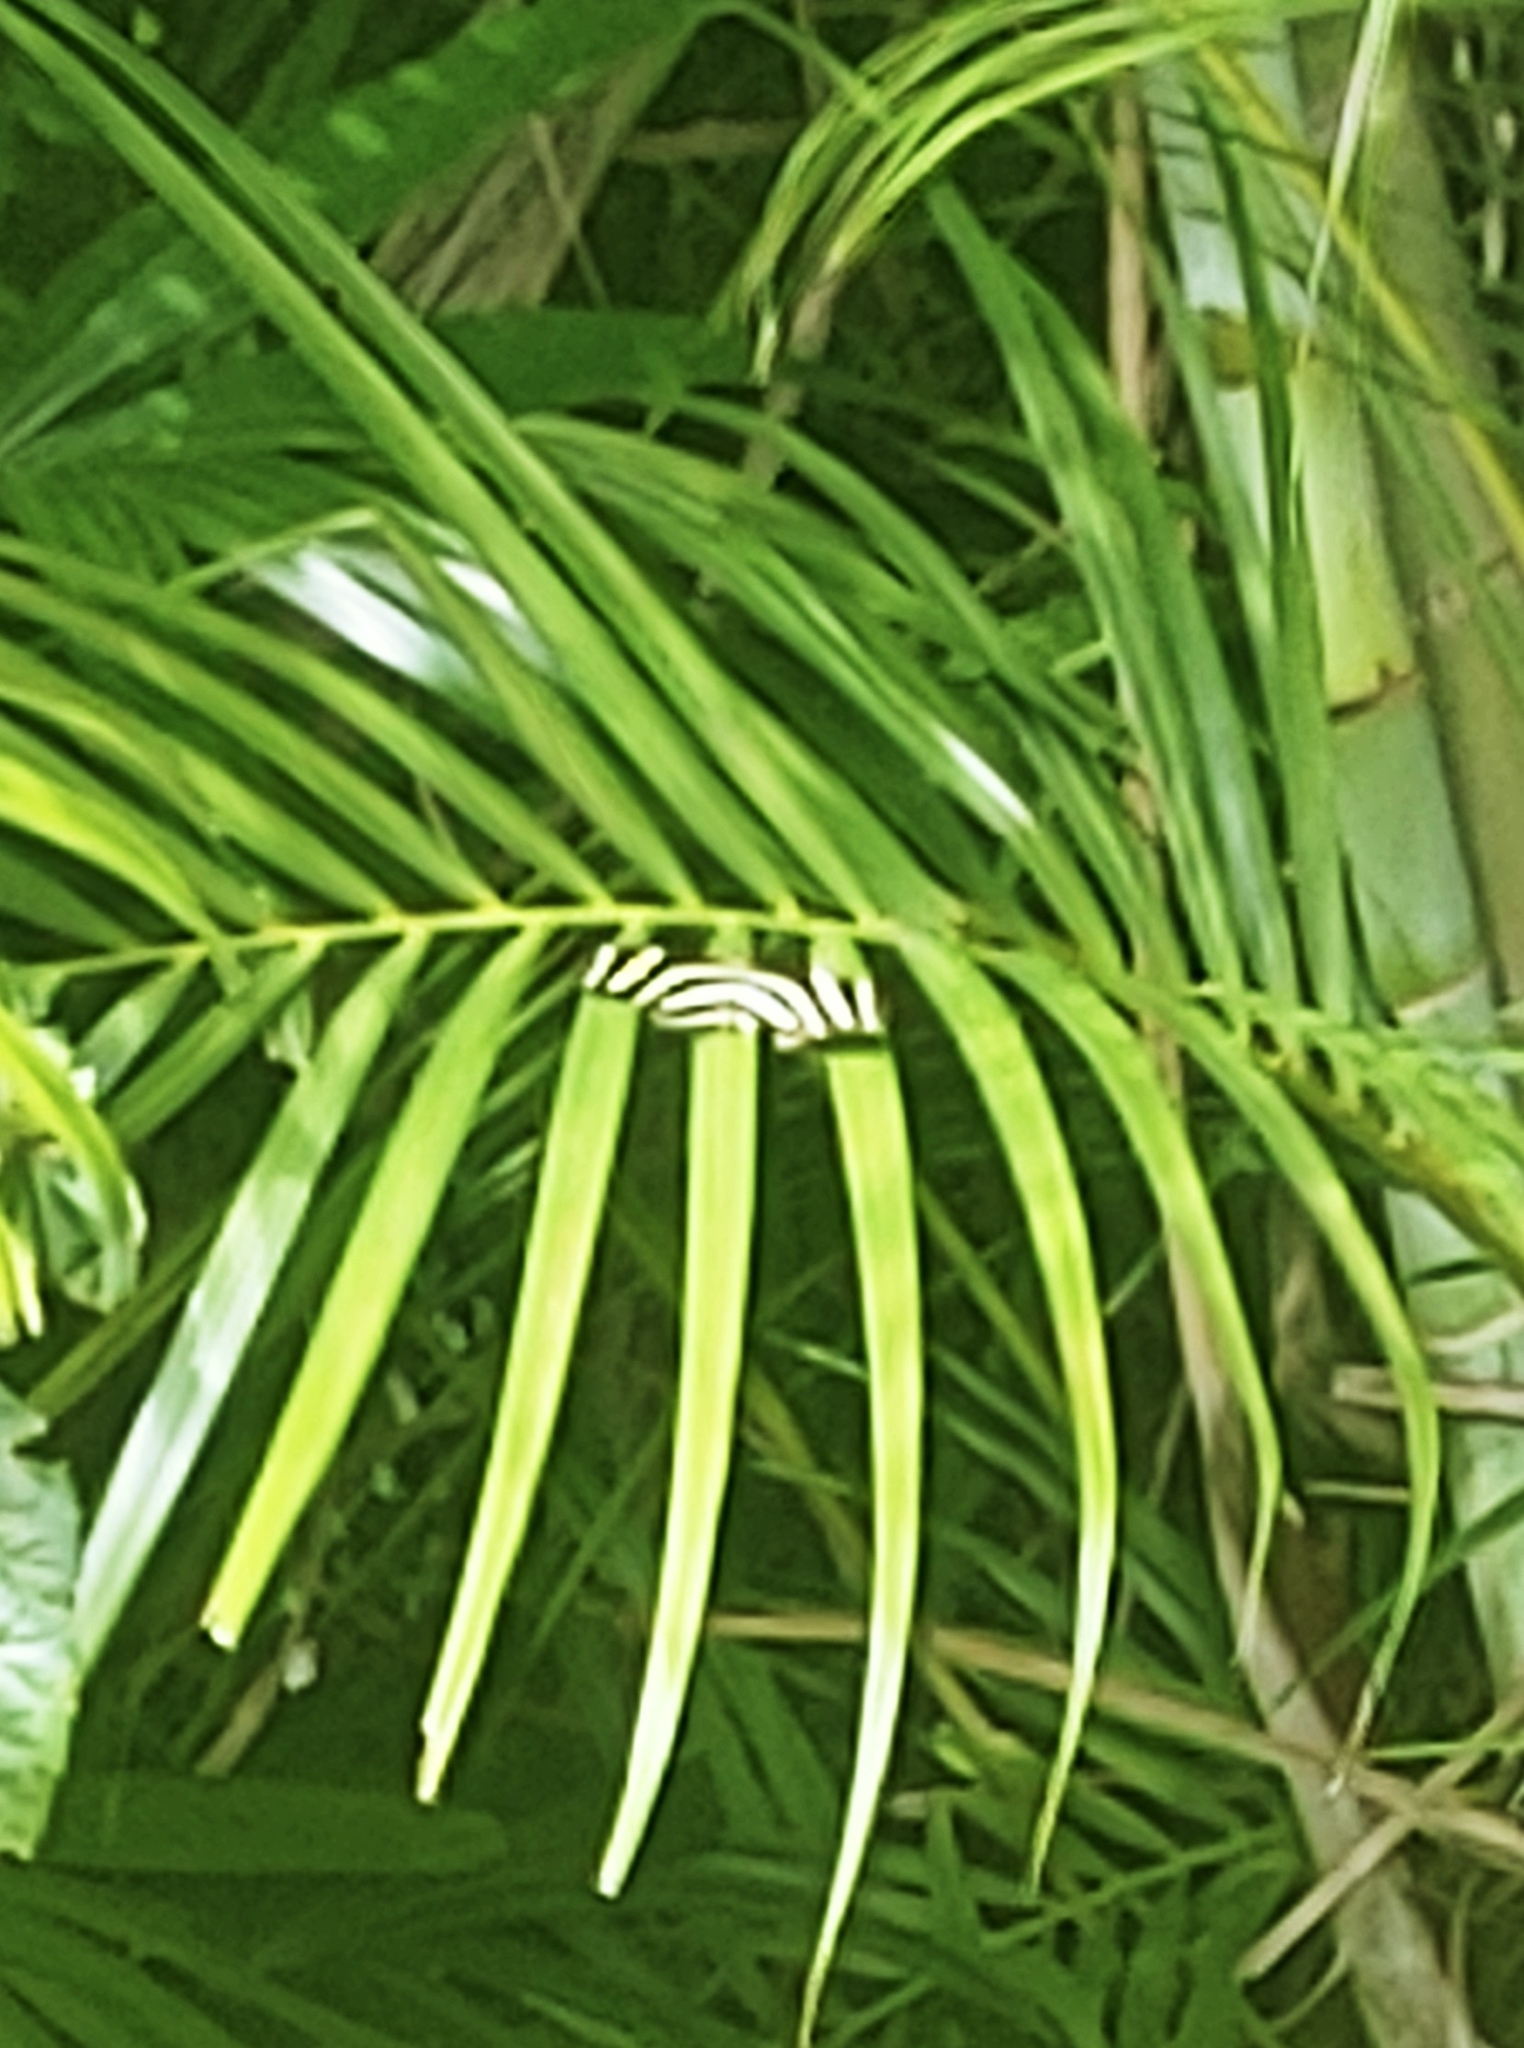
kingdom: Animalia
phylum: Arthropoda
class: Insecta
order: Lepidoptera
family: Nymphalidae
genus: Heliconius
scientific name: Heliconius charithonia
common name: Zebra long wing
